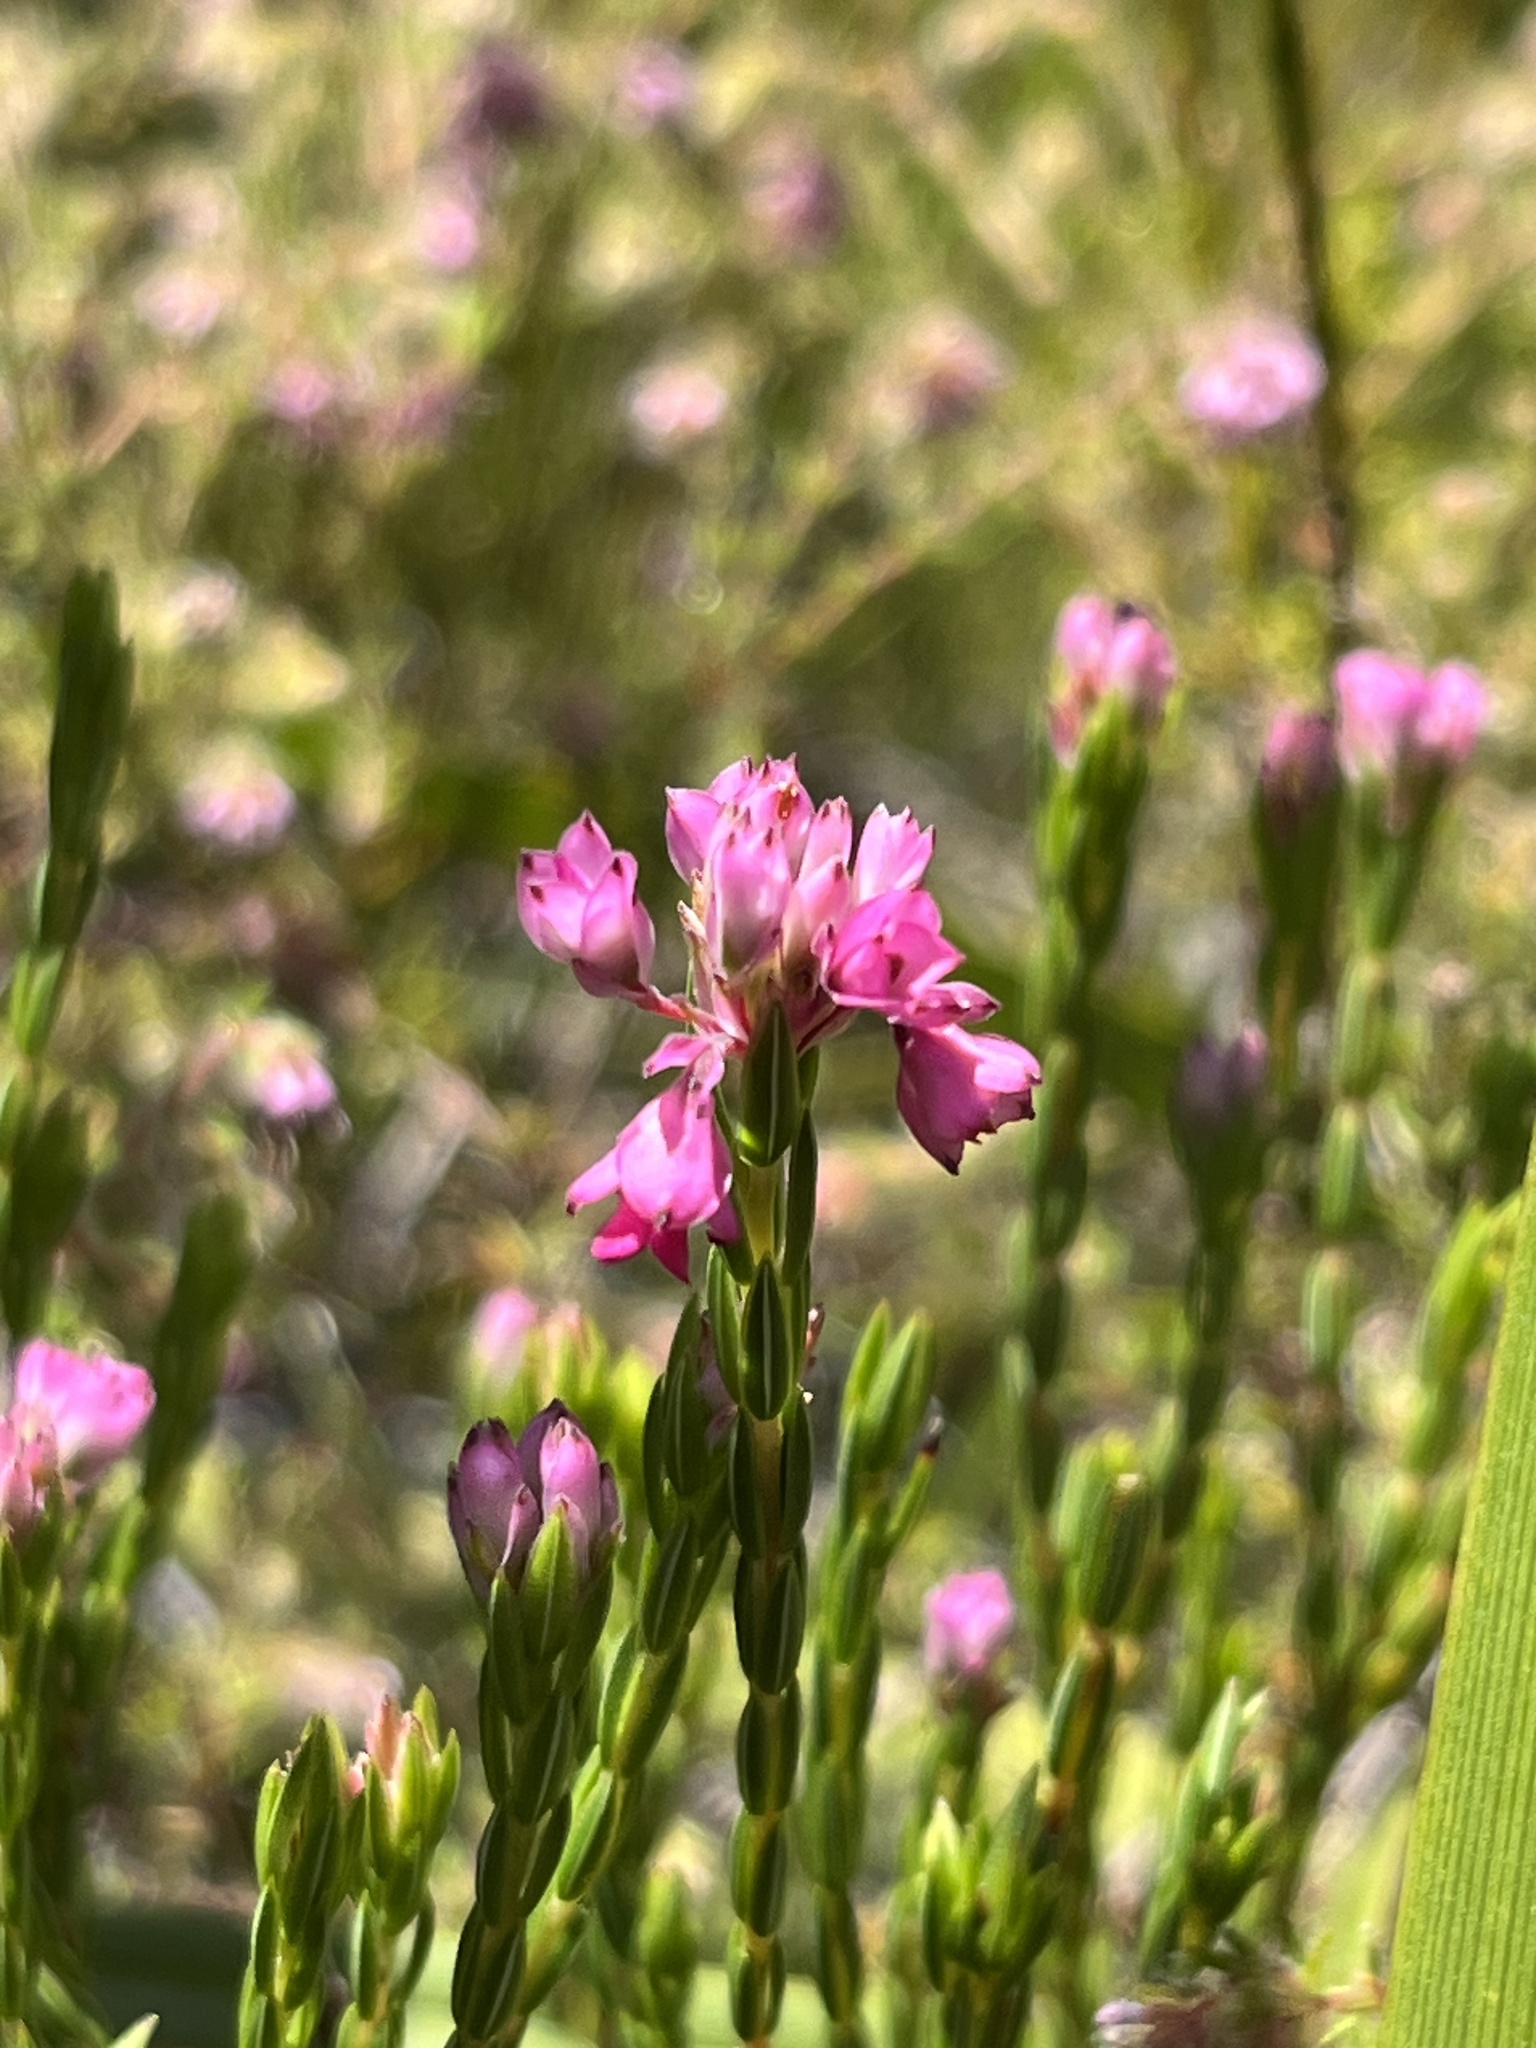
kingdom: Plantae
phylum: Tracheophyta
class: Magnoliopsida
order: Ericales
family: Ericaceae
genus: Erica
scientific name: Erica corifolia
